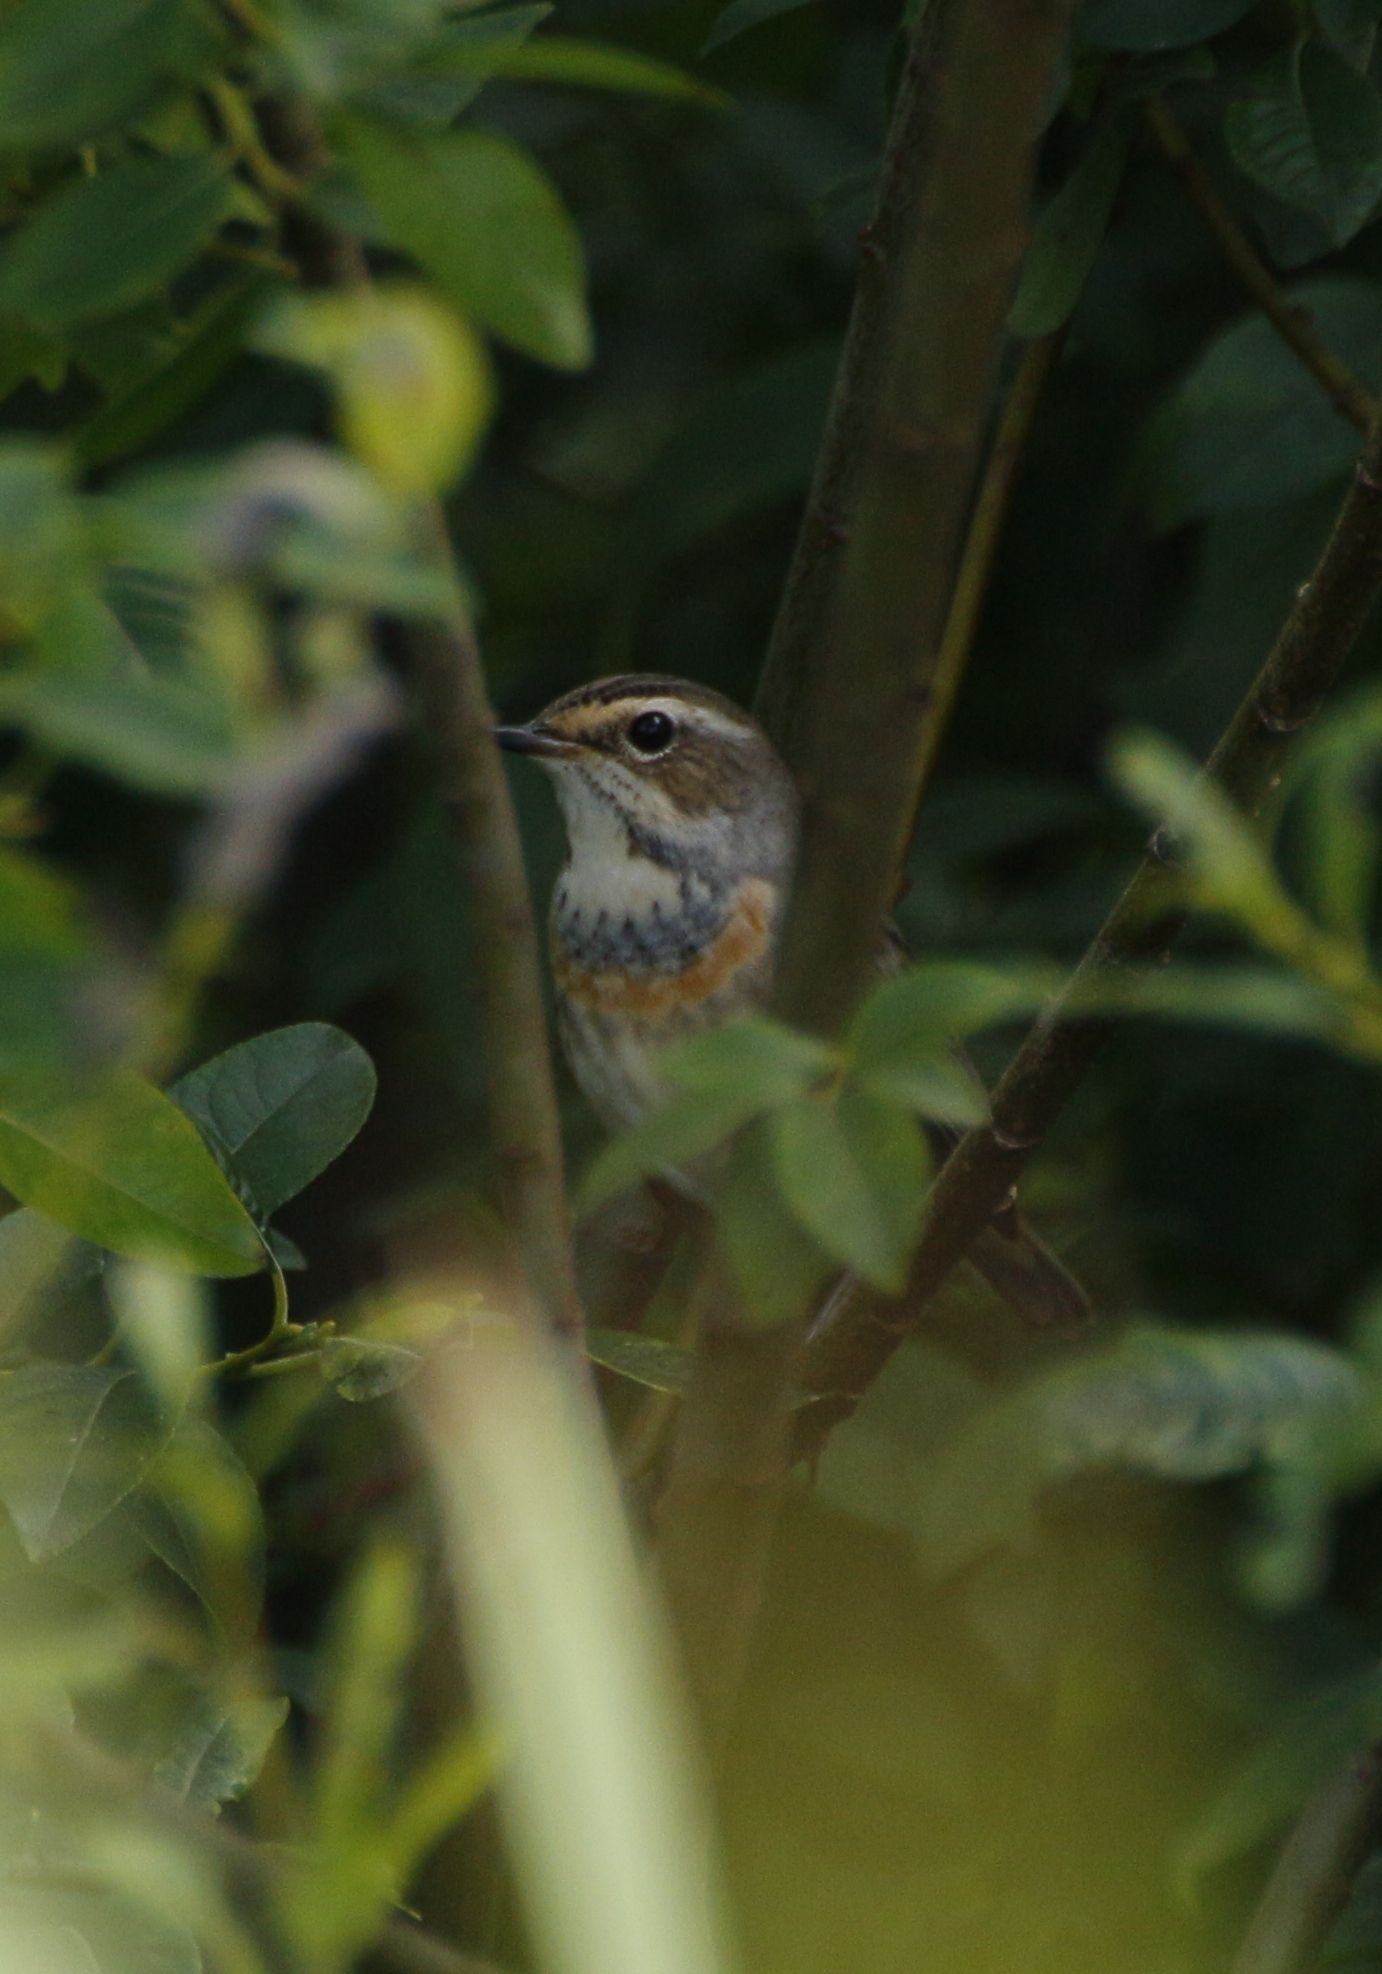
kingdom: Animalia
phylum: Chordata
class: Aves
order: Passeriformes
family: Muscicapidae
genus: Luscinia
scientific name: Luscinia svecica
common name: Bluethroat
